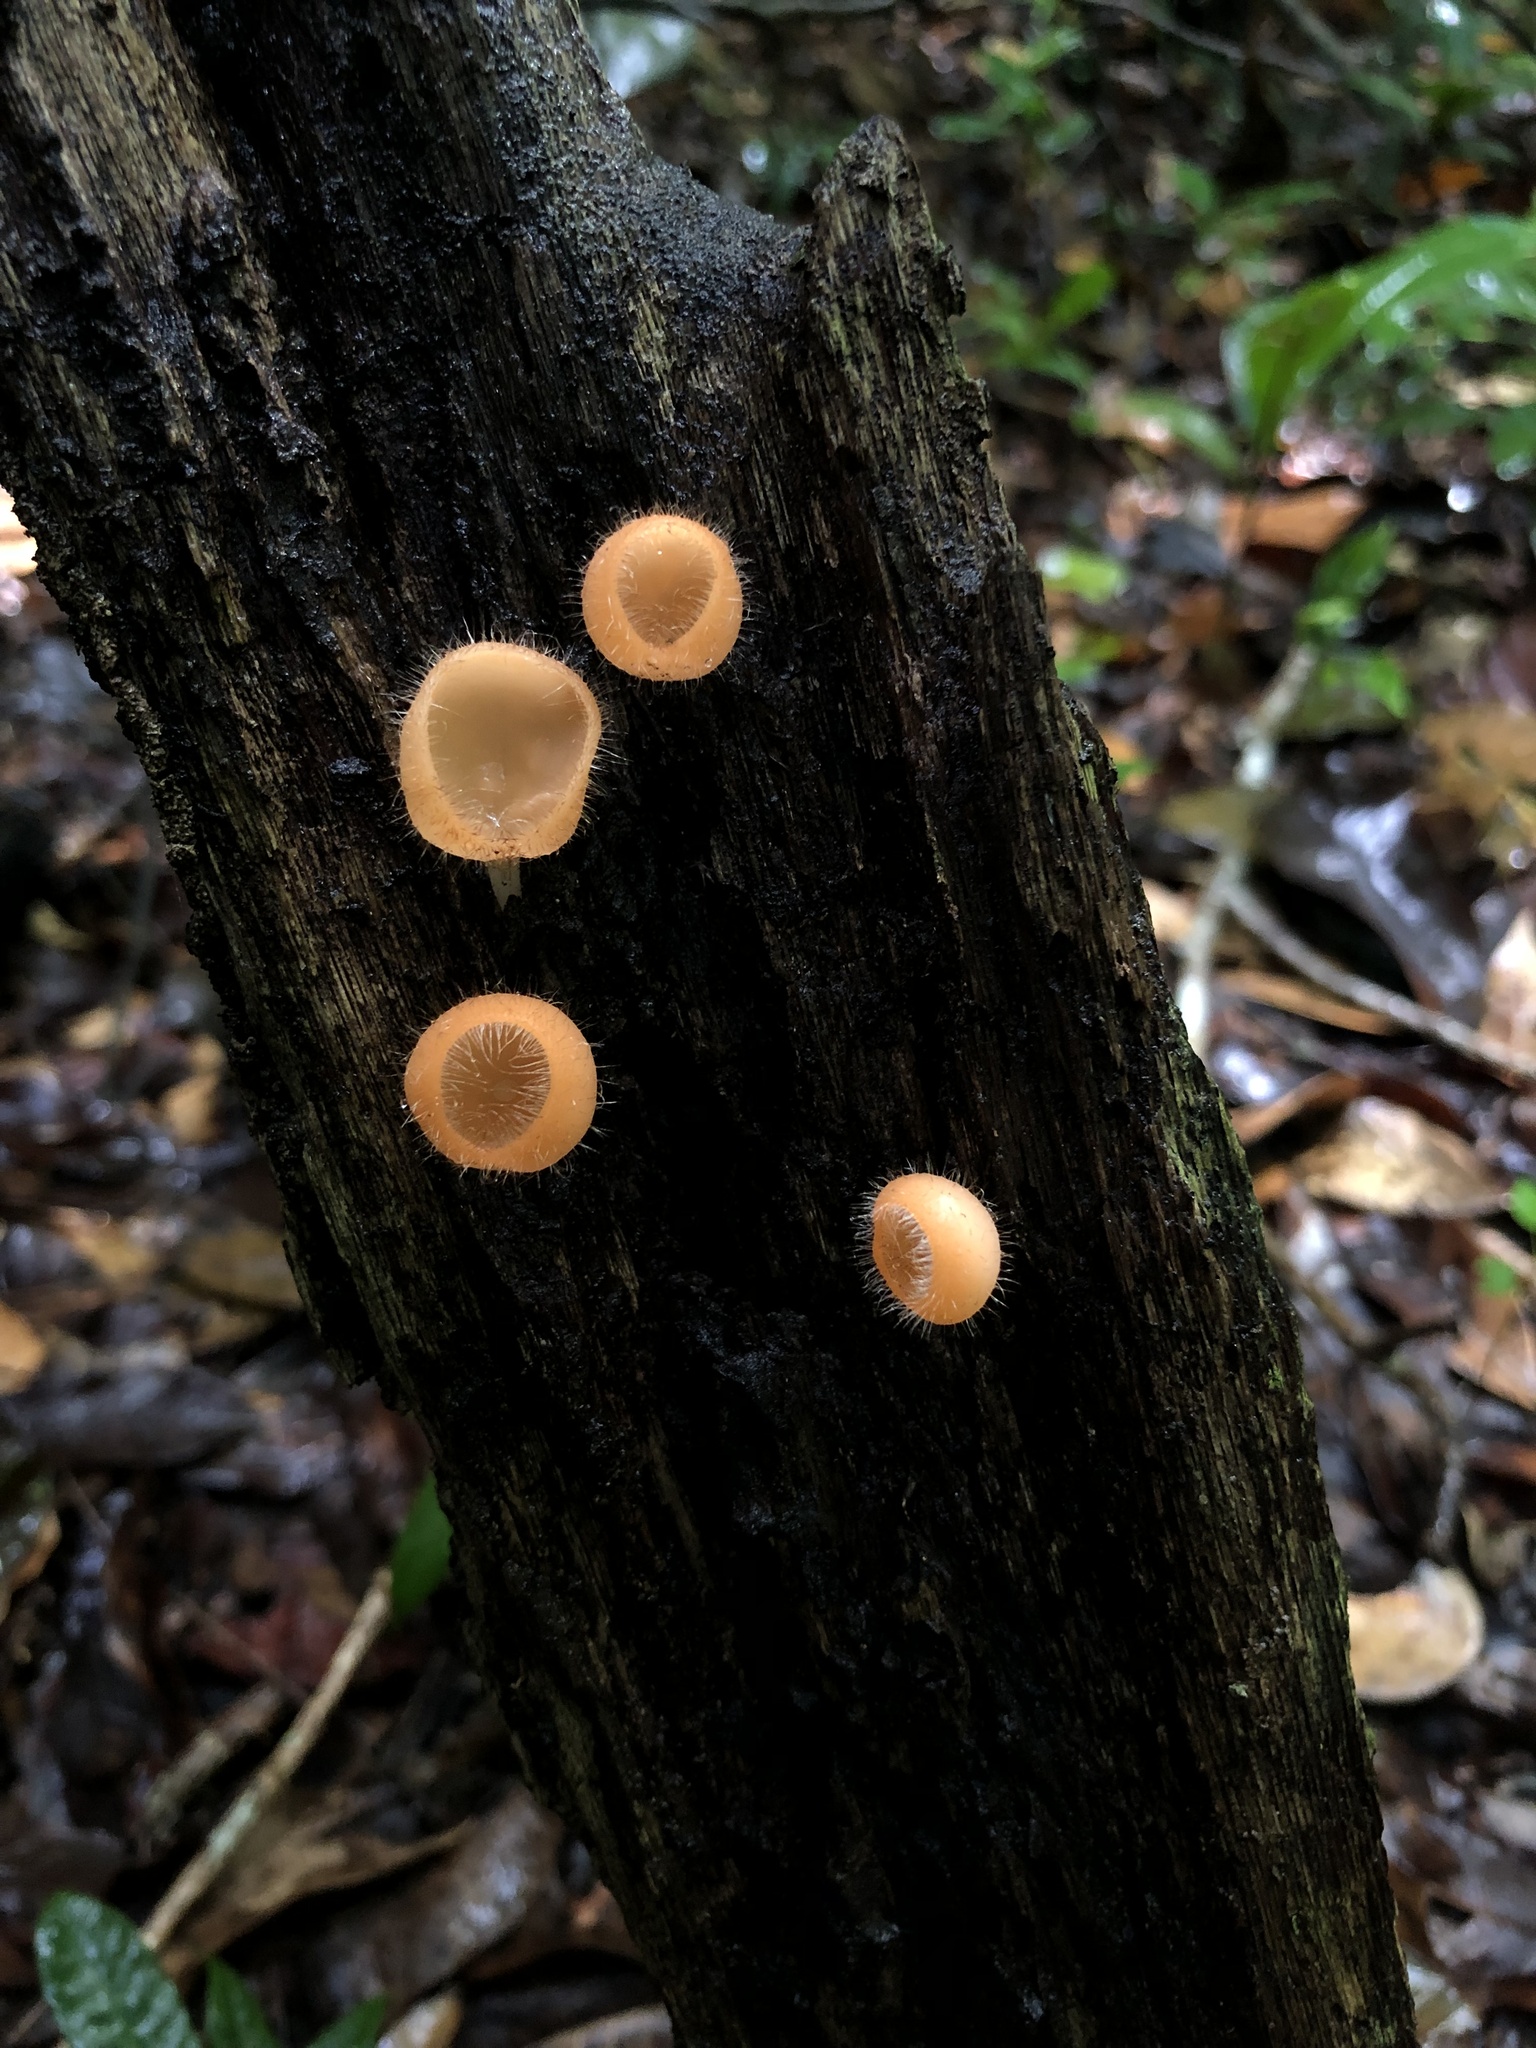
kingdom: Fungi
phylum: Ascomycota
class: Pezizomycetes
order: Pezizales
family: Sarcoscyphaceae
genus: Cookeina
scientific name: Cookeina tricholoma
